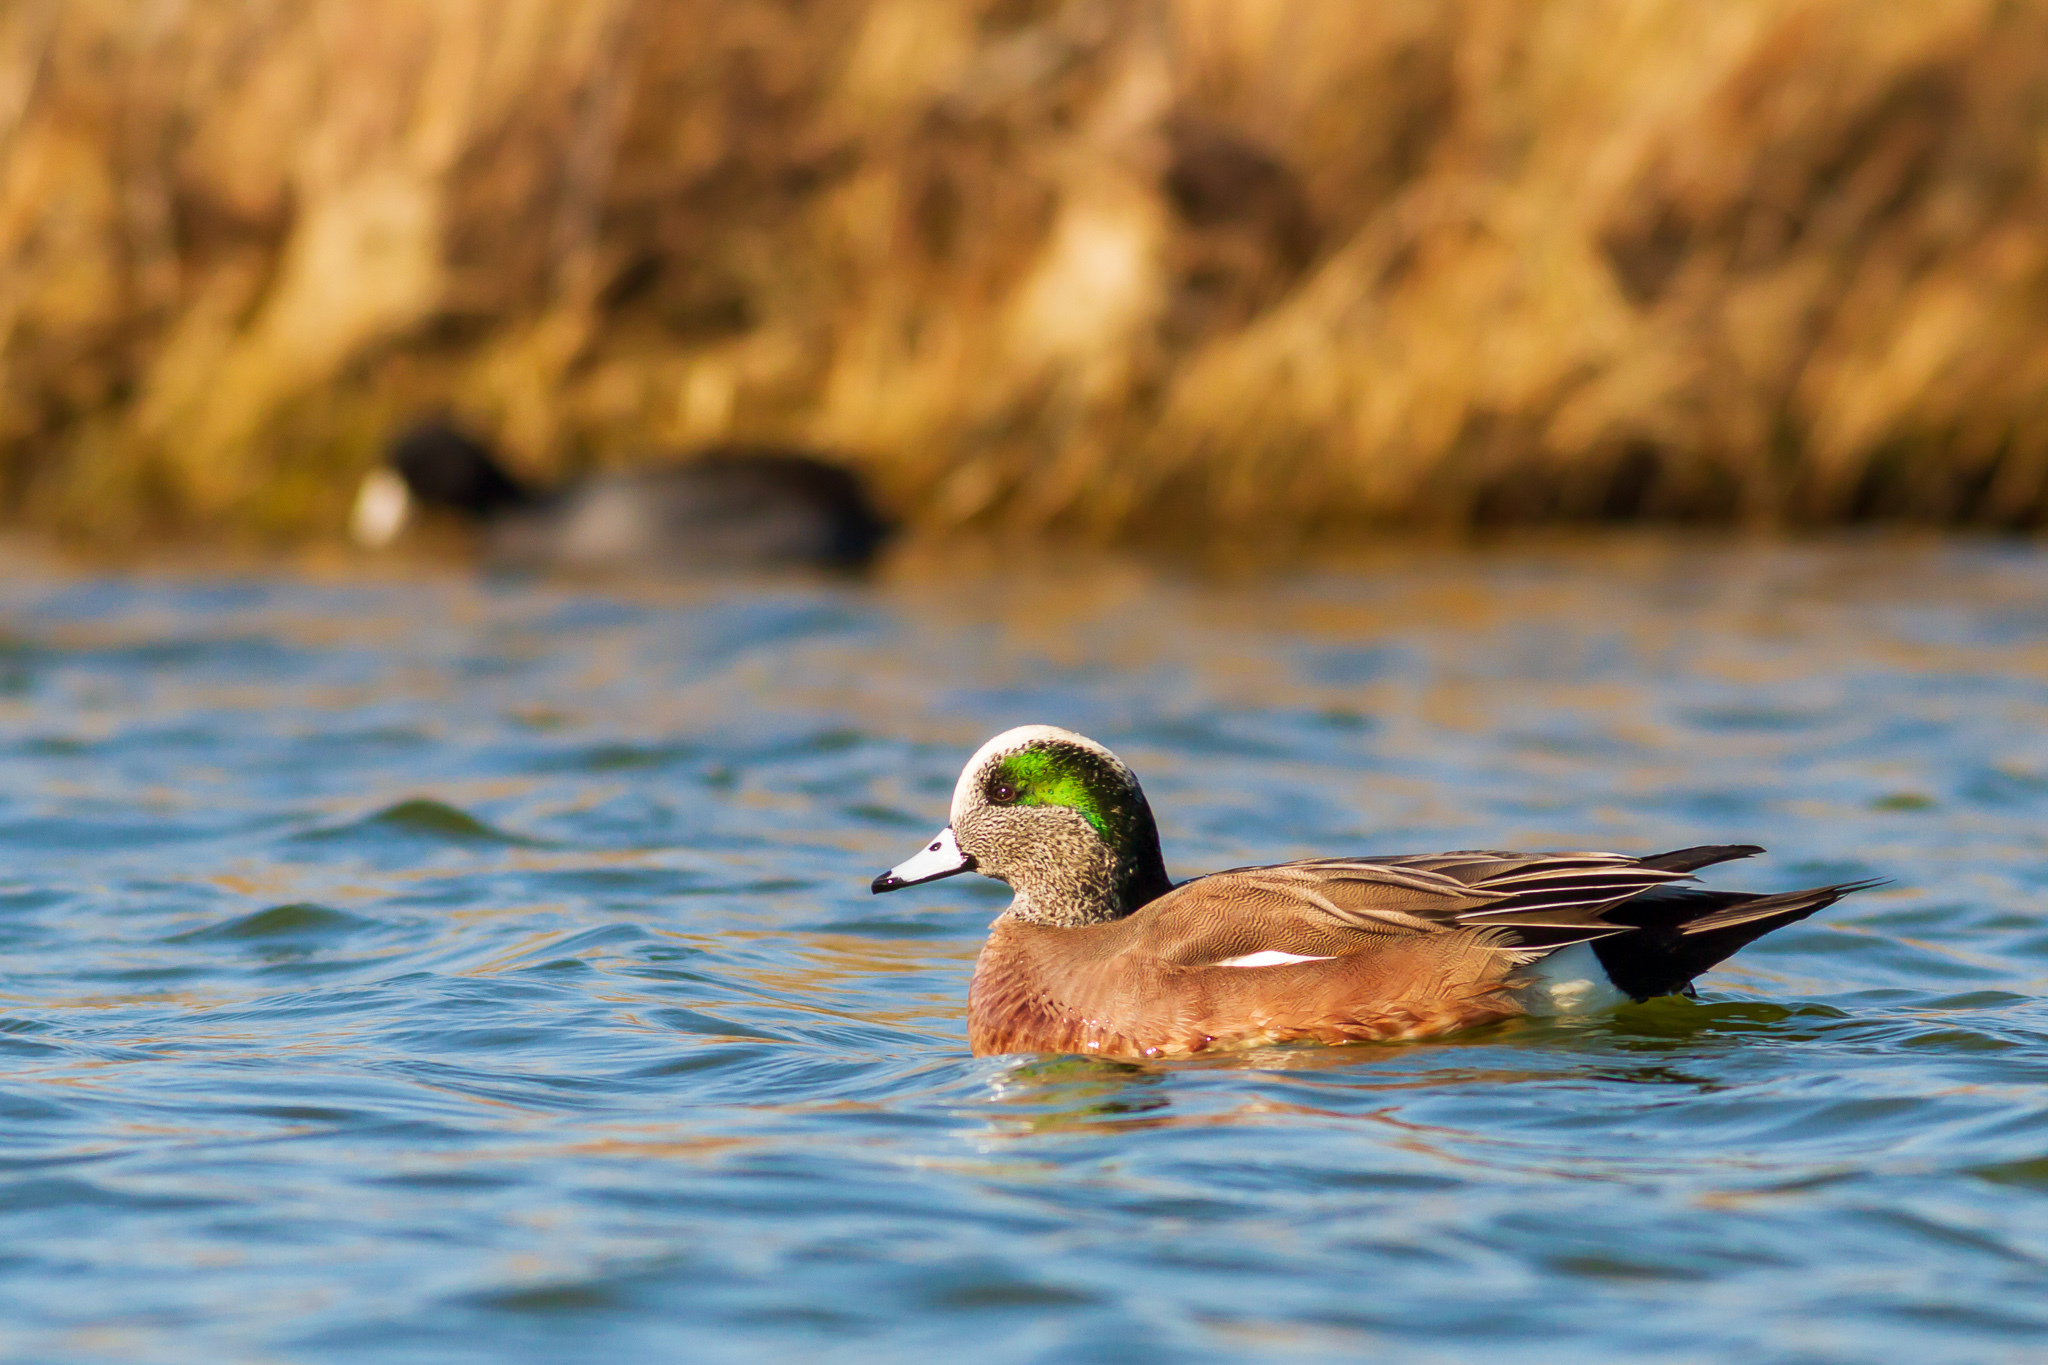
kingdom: Animalia
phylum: Chordata
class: Aves
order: Anseriformes
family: Anatidae
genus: Mareca
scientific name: Mareca americana
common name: American wigeon
